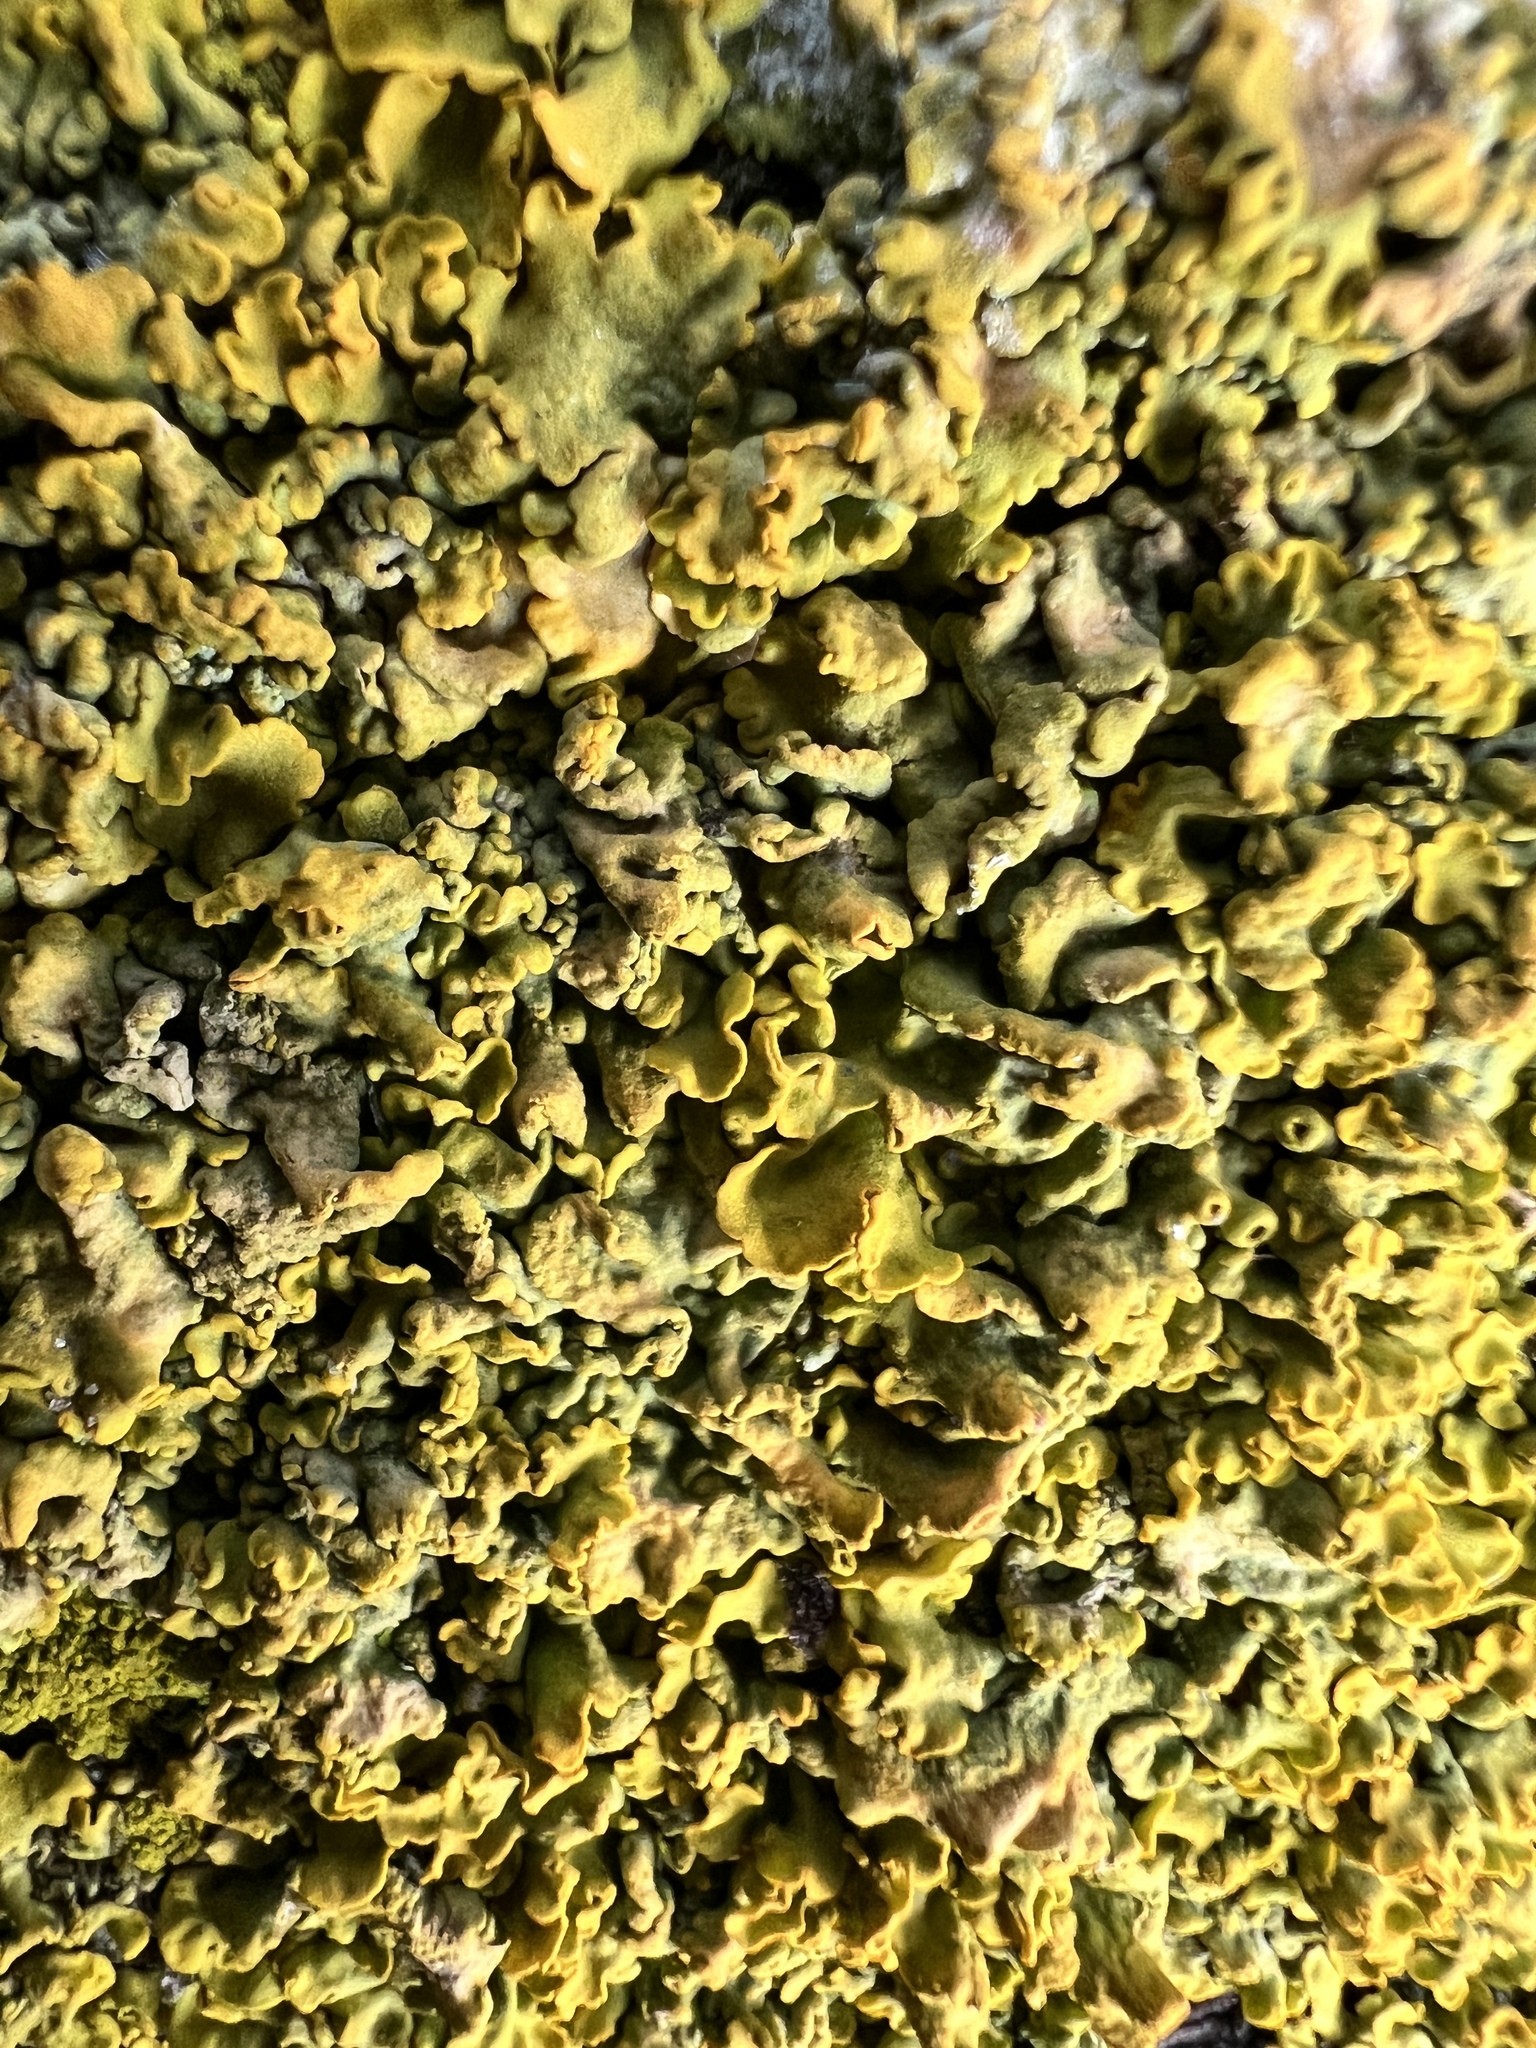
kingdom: Fungi
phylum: Ascomycota
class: Lecanoromycetes
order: Teloschistales
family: Teloschistaceae
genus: Xanthoria
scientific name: Xanthoria parietina
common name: Common orange lichen
